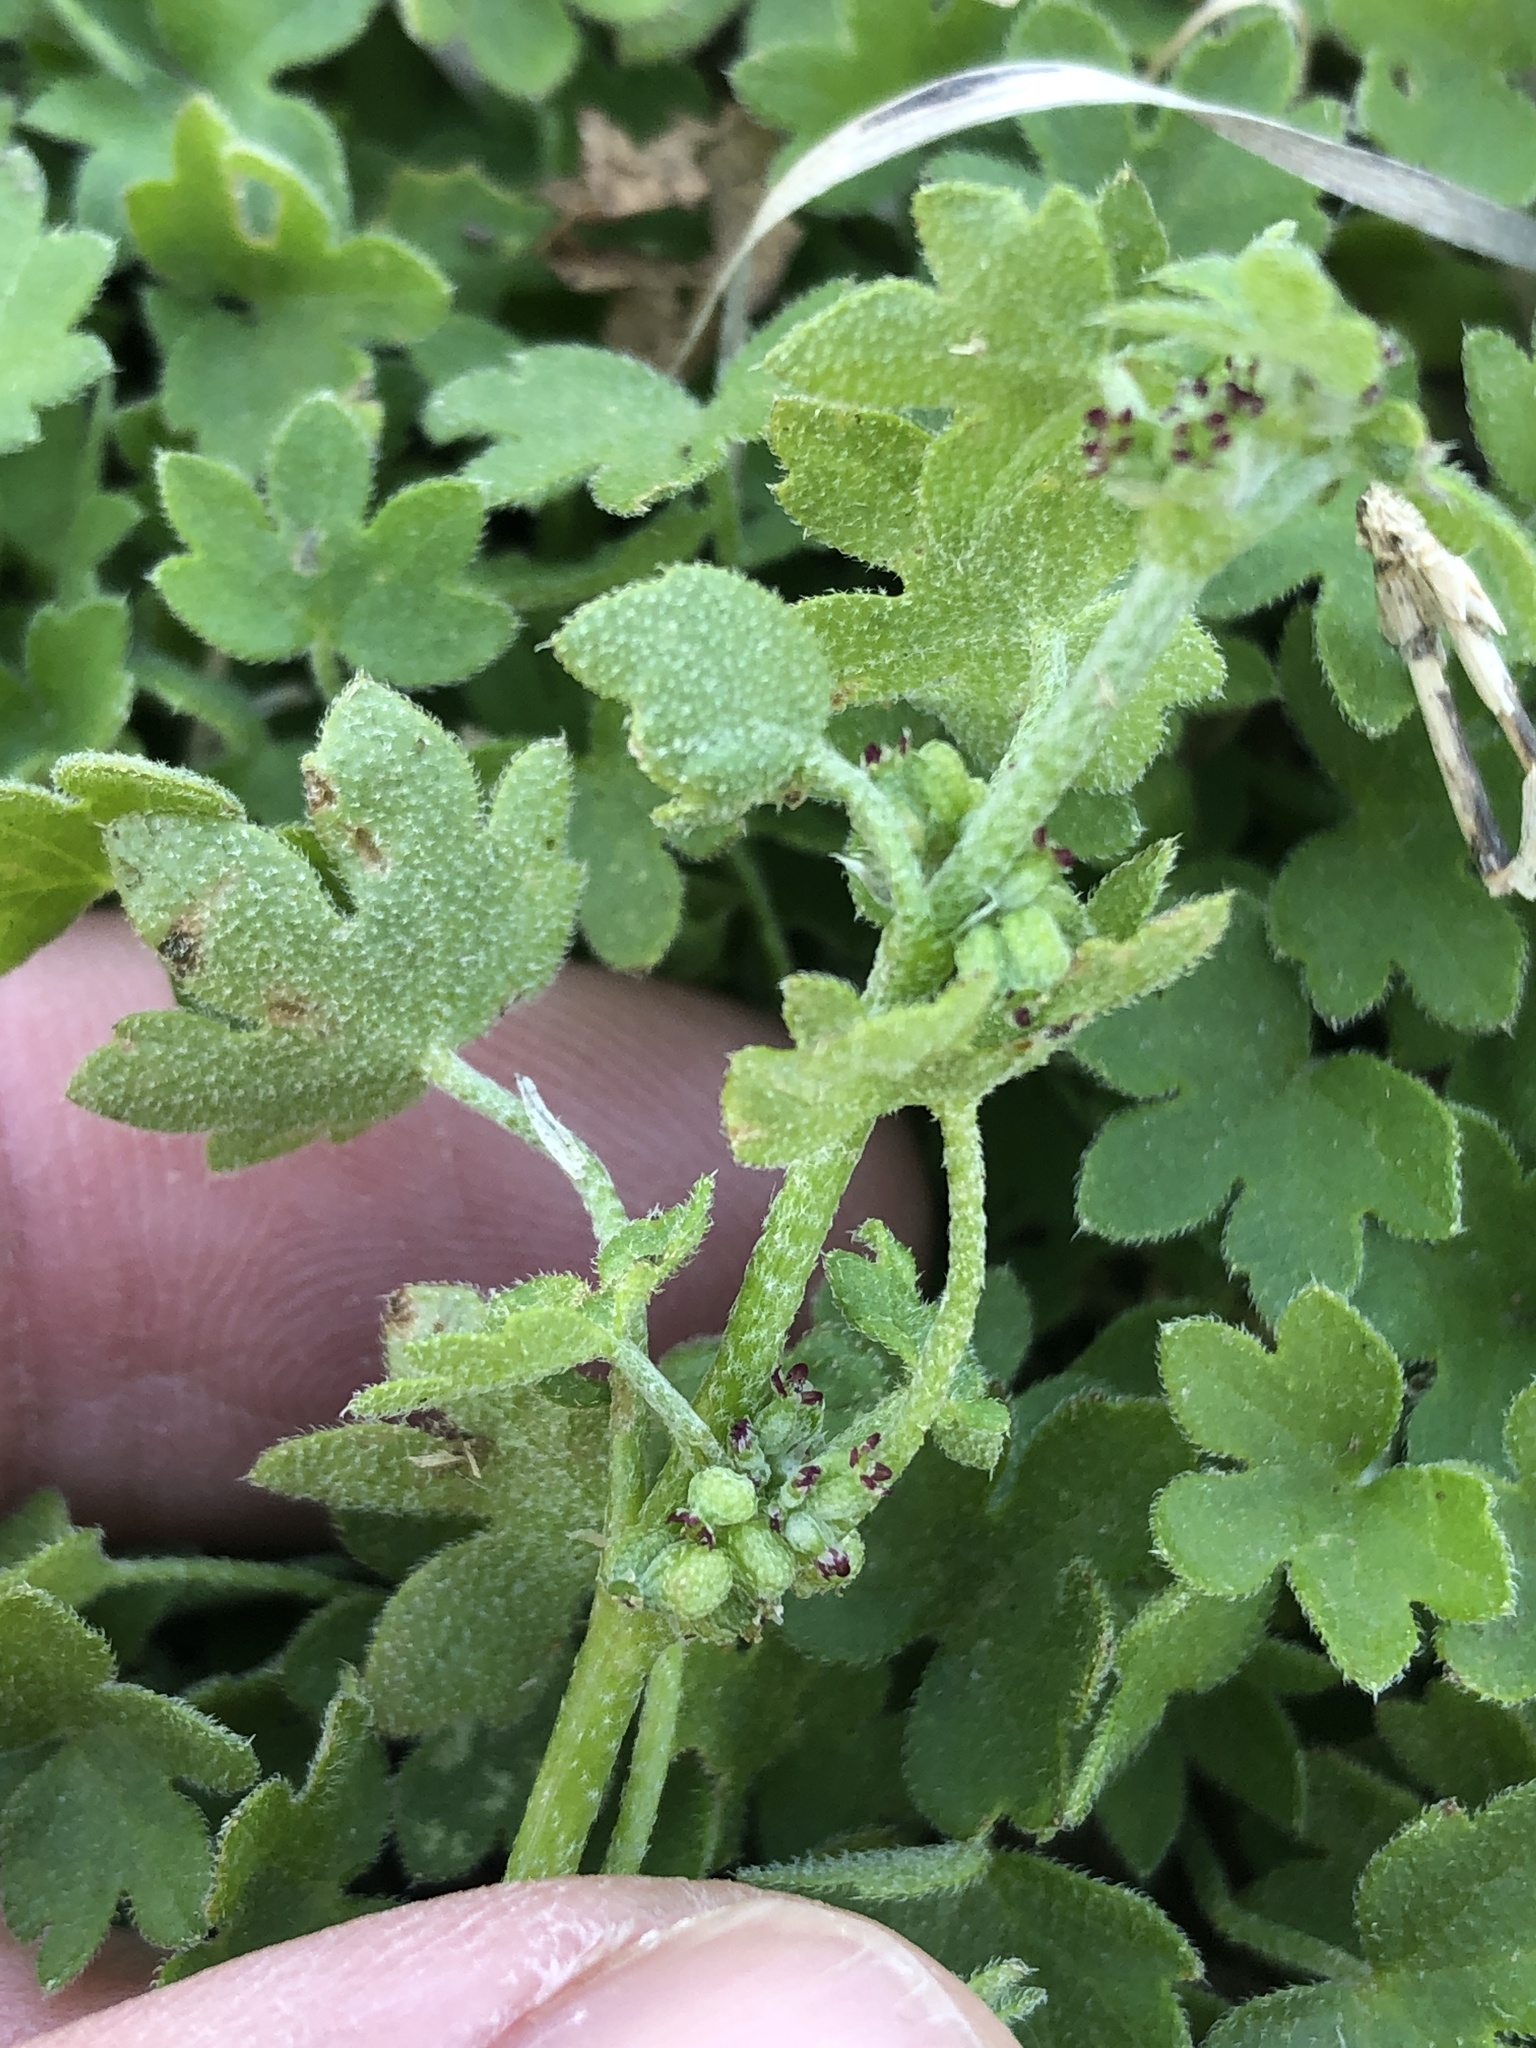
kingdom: Plantae
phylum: Tracheophyta
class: Magnoliopsida
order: Apiales
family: Apiaceae
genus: Bowlesia
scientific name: Bowlesia incana
